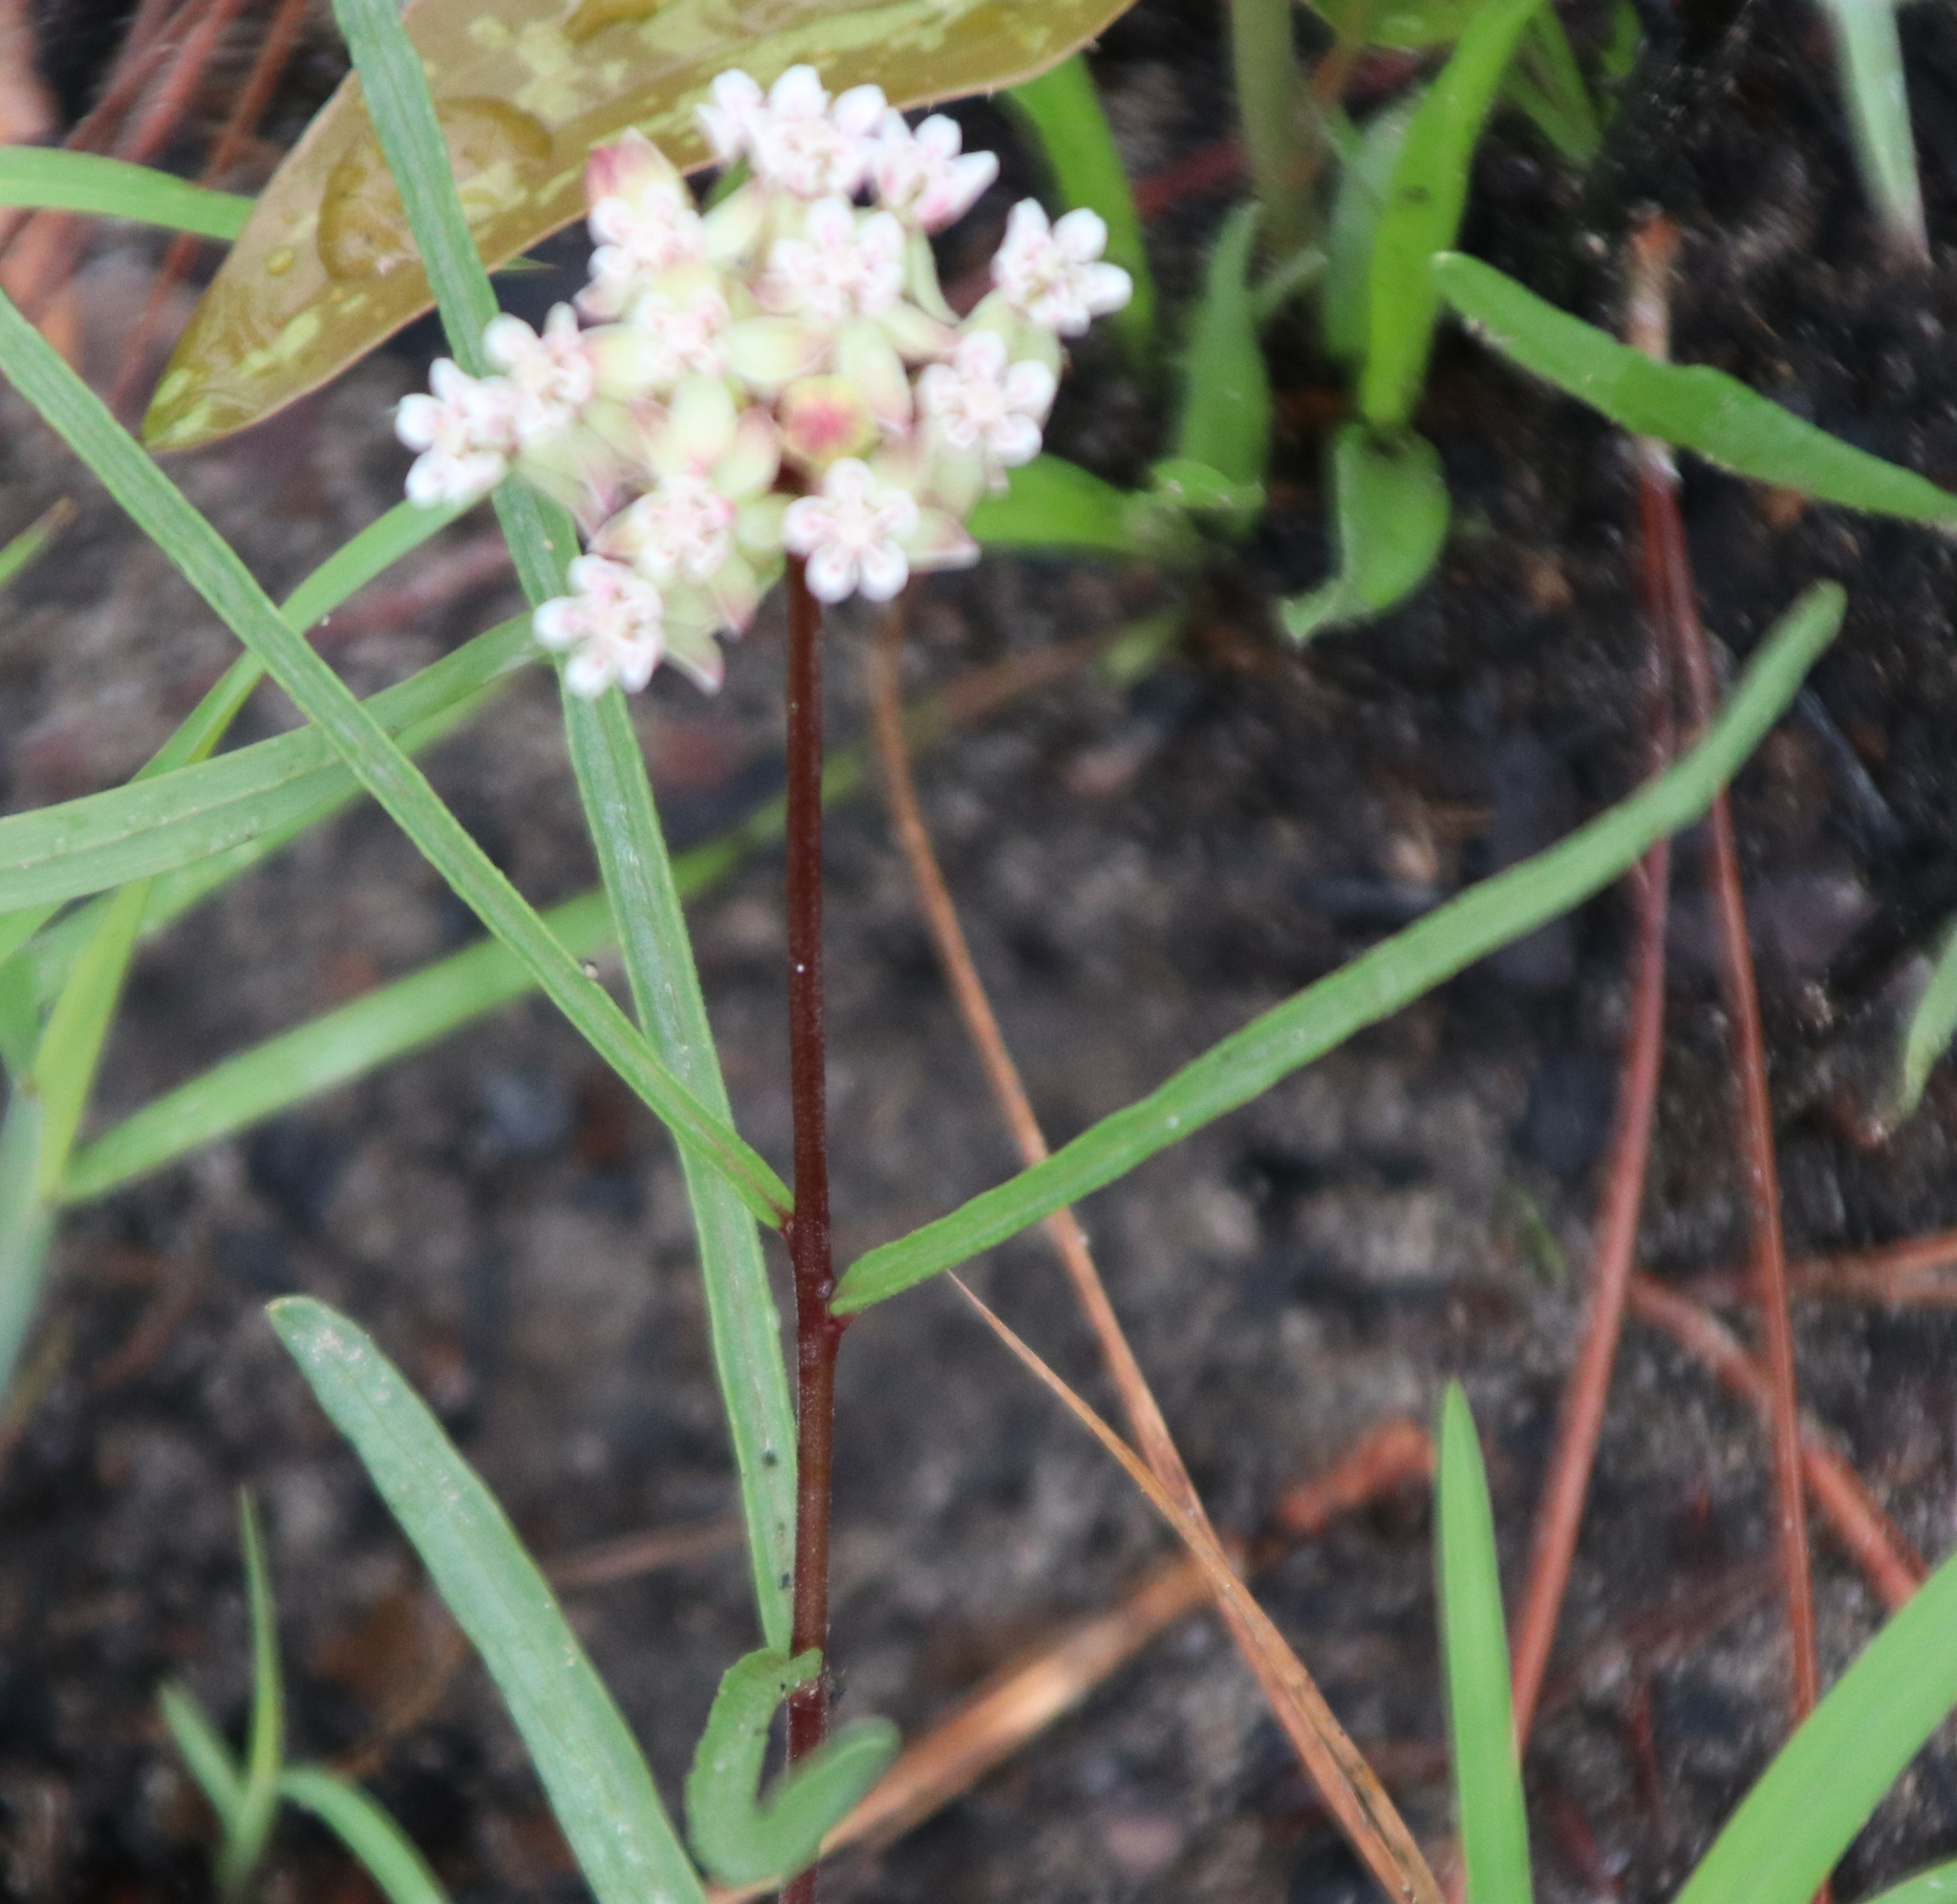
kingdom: Plantae
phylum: Tracheophyta
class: Magnoliopsida
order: Gentianales
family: Apocynaceae
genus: Asclepias
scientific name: Asclepias michauxii
